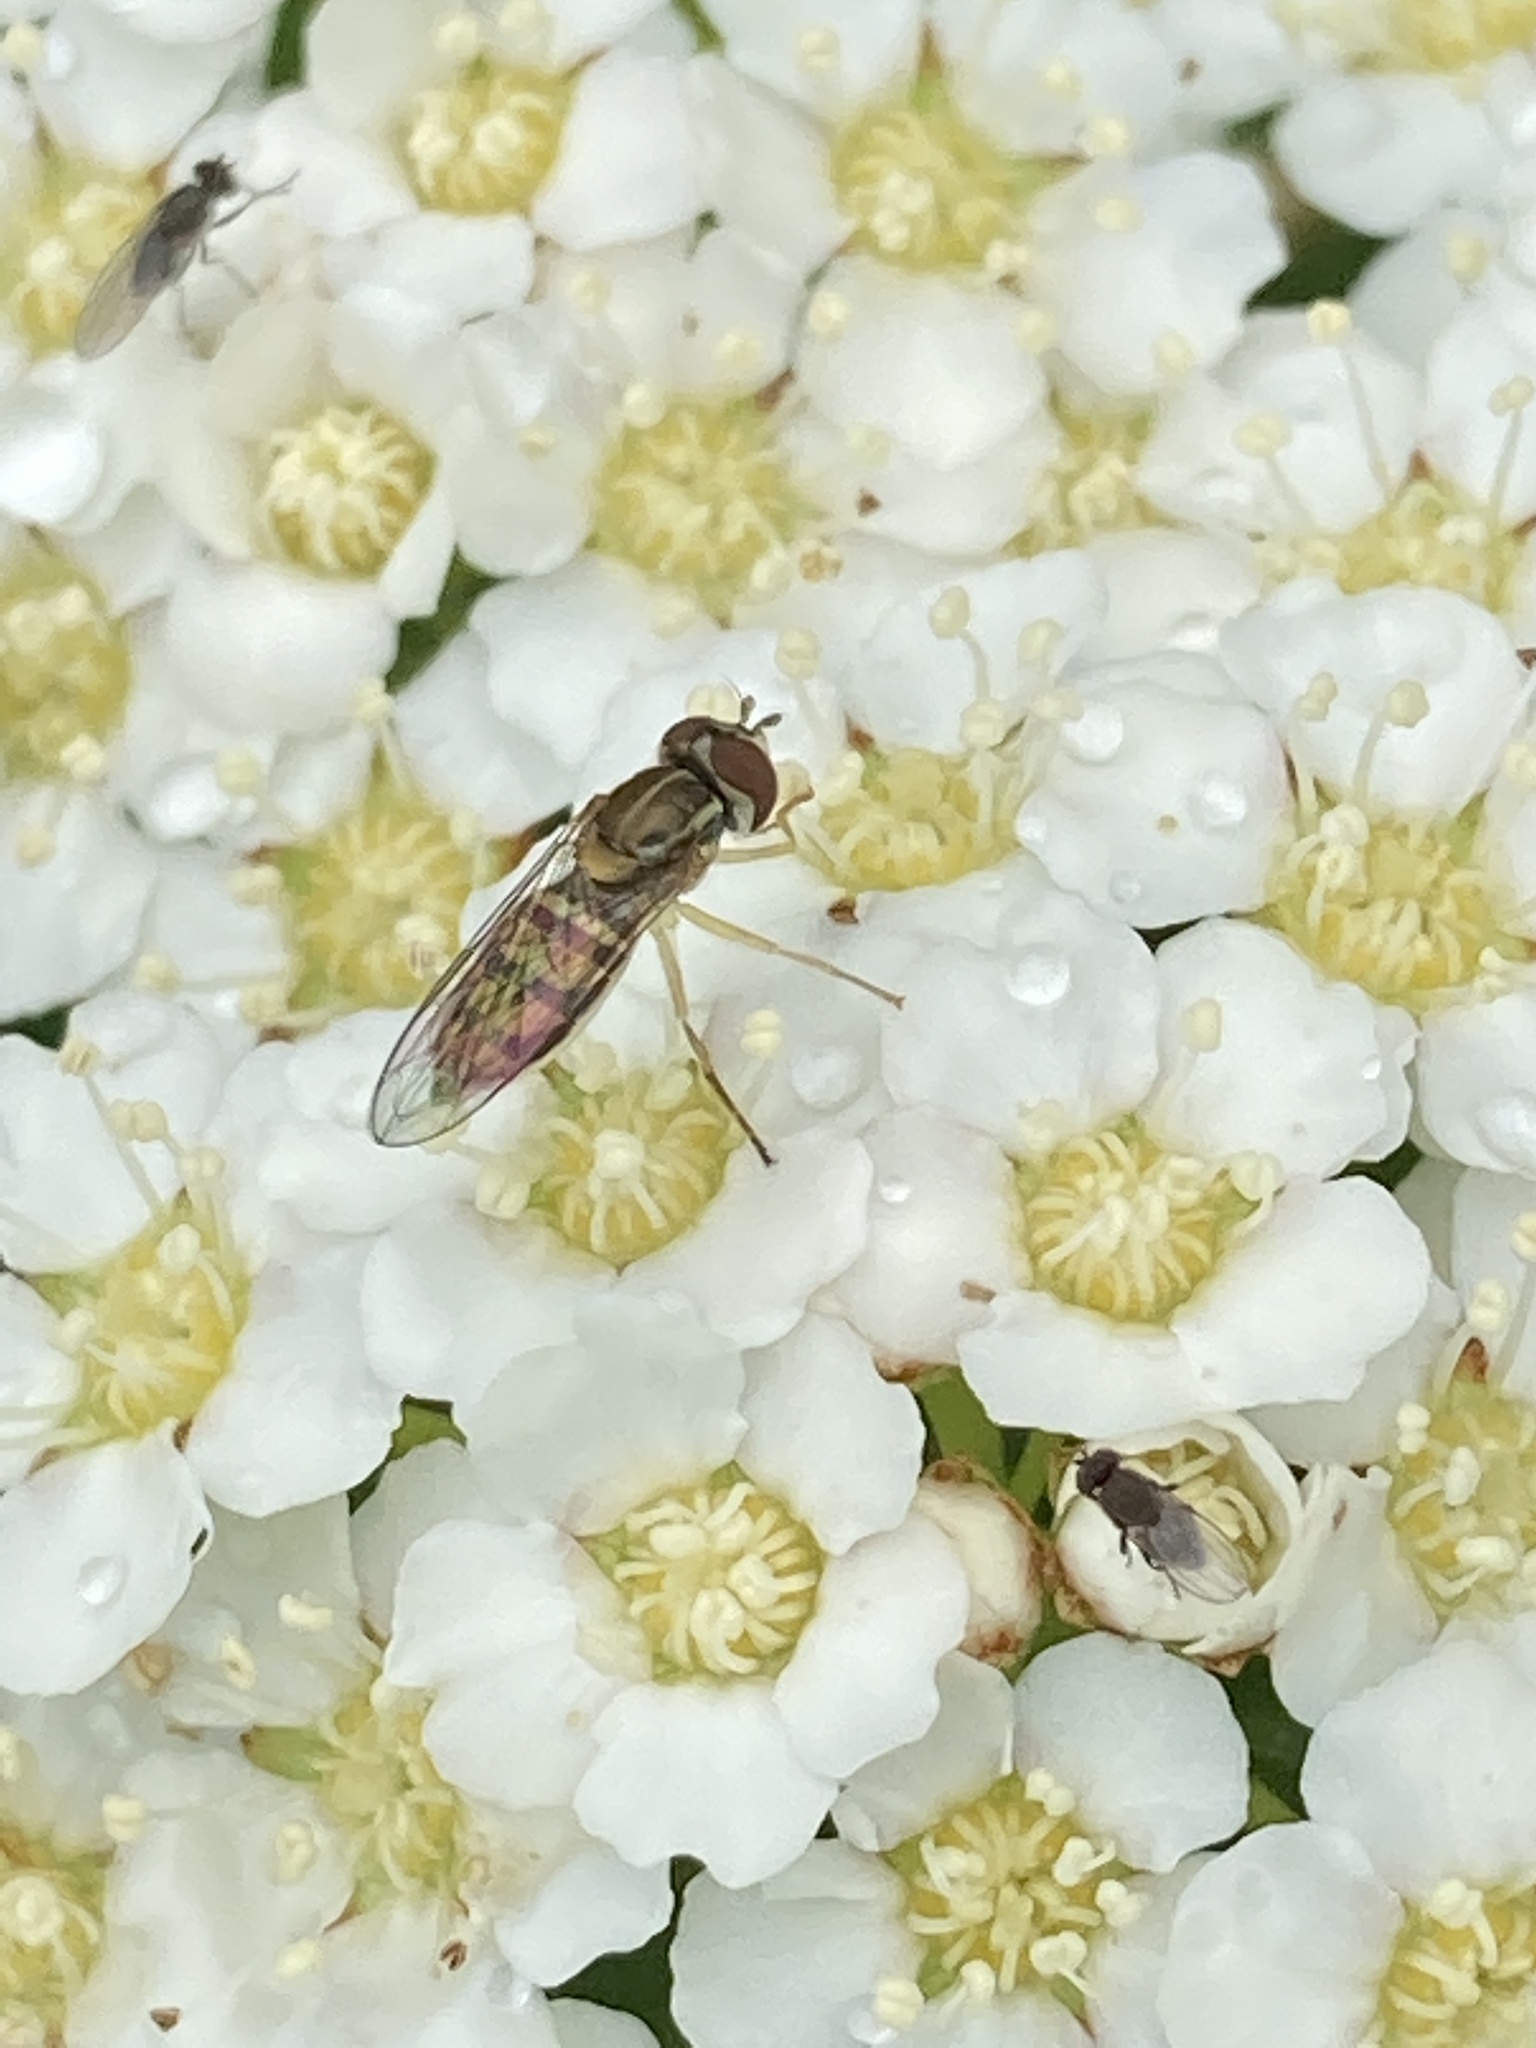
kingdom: Animalia
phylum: Arthropoda
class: Insecta
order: Diptera
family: Syrphidae
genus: Toxomerus
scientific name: Toxomerus marginatus
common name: Syrphid fly
